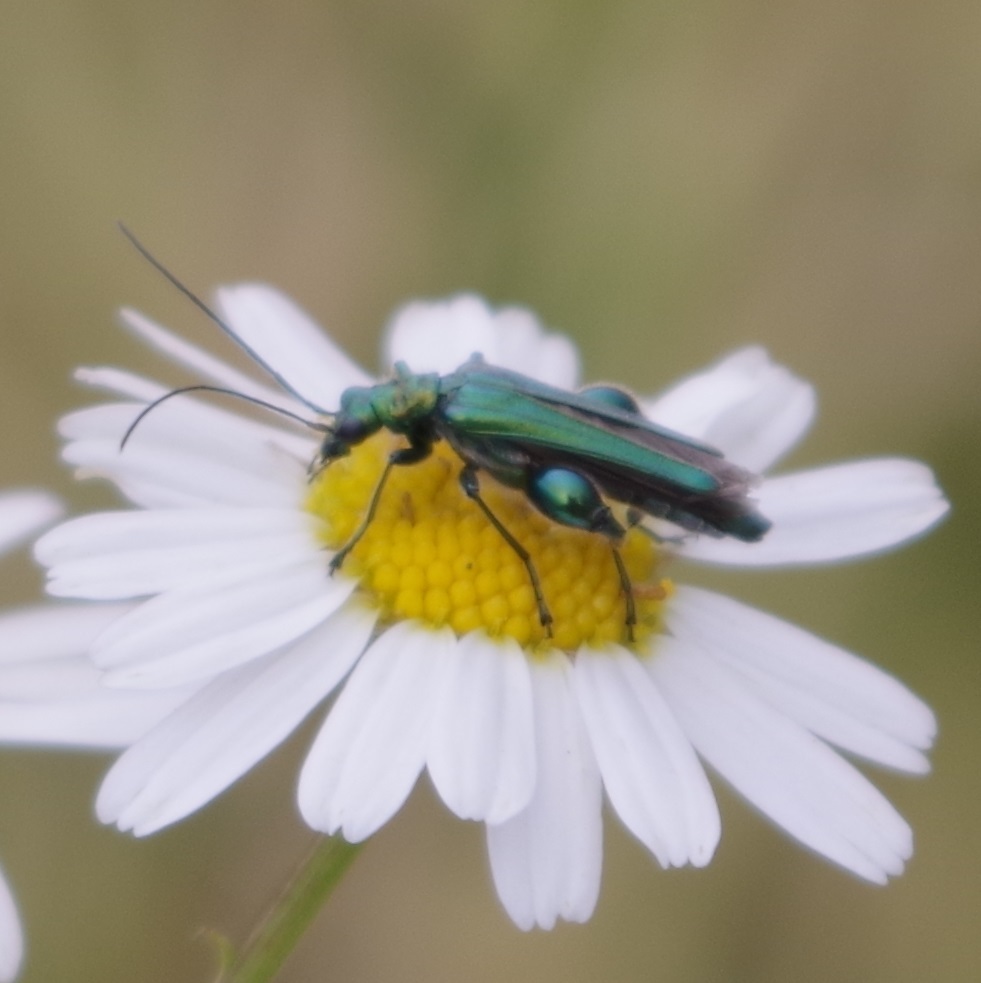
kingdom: Animalia
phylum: Arthropoda
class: Insecta
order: Coleoptera
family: Oedemeridae
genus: Oedemera
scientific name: Oedemera nobilis
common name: Swollen-thighed beetle
